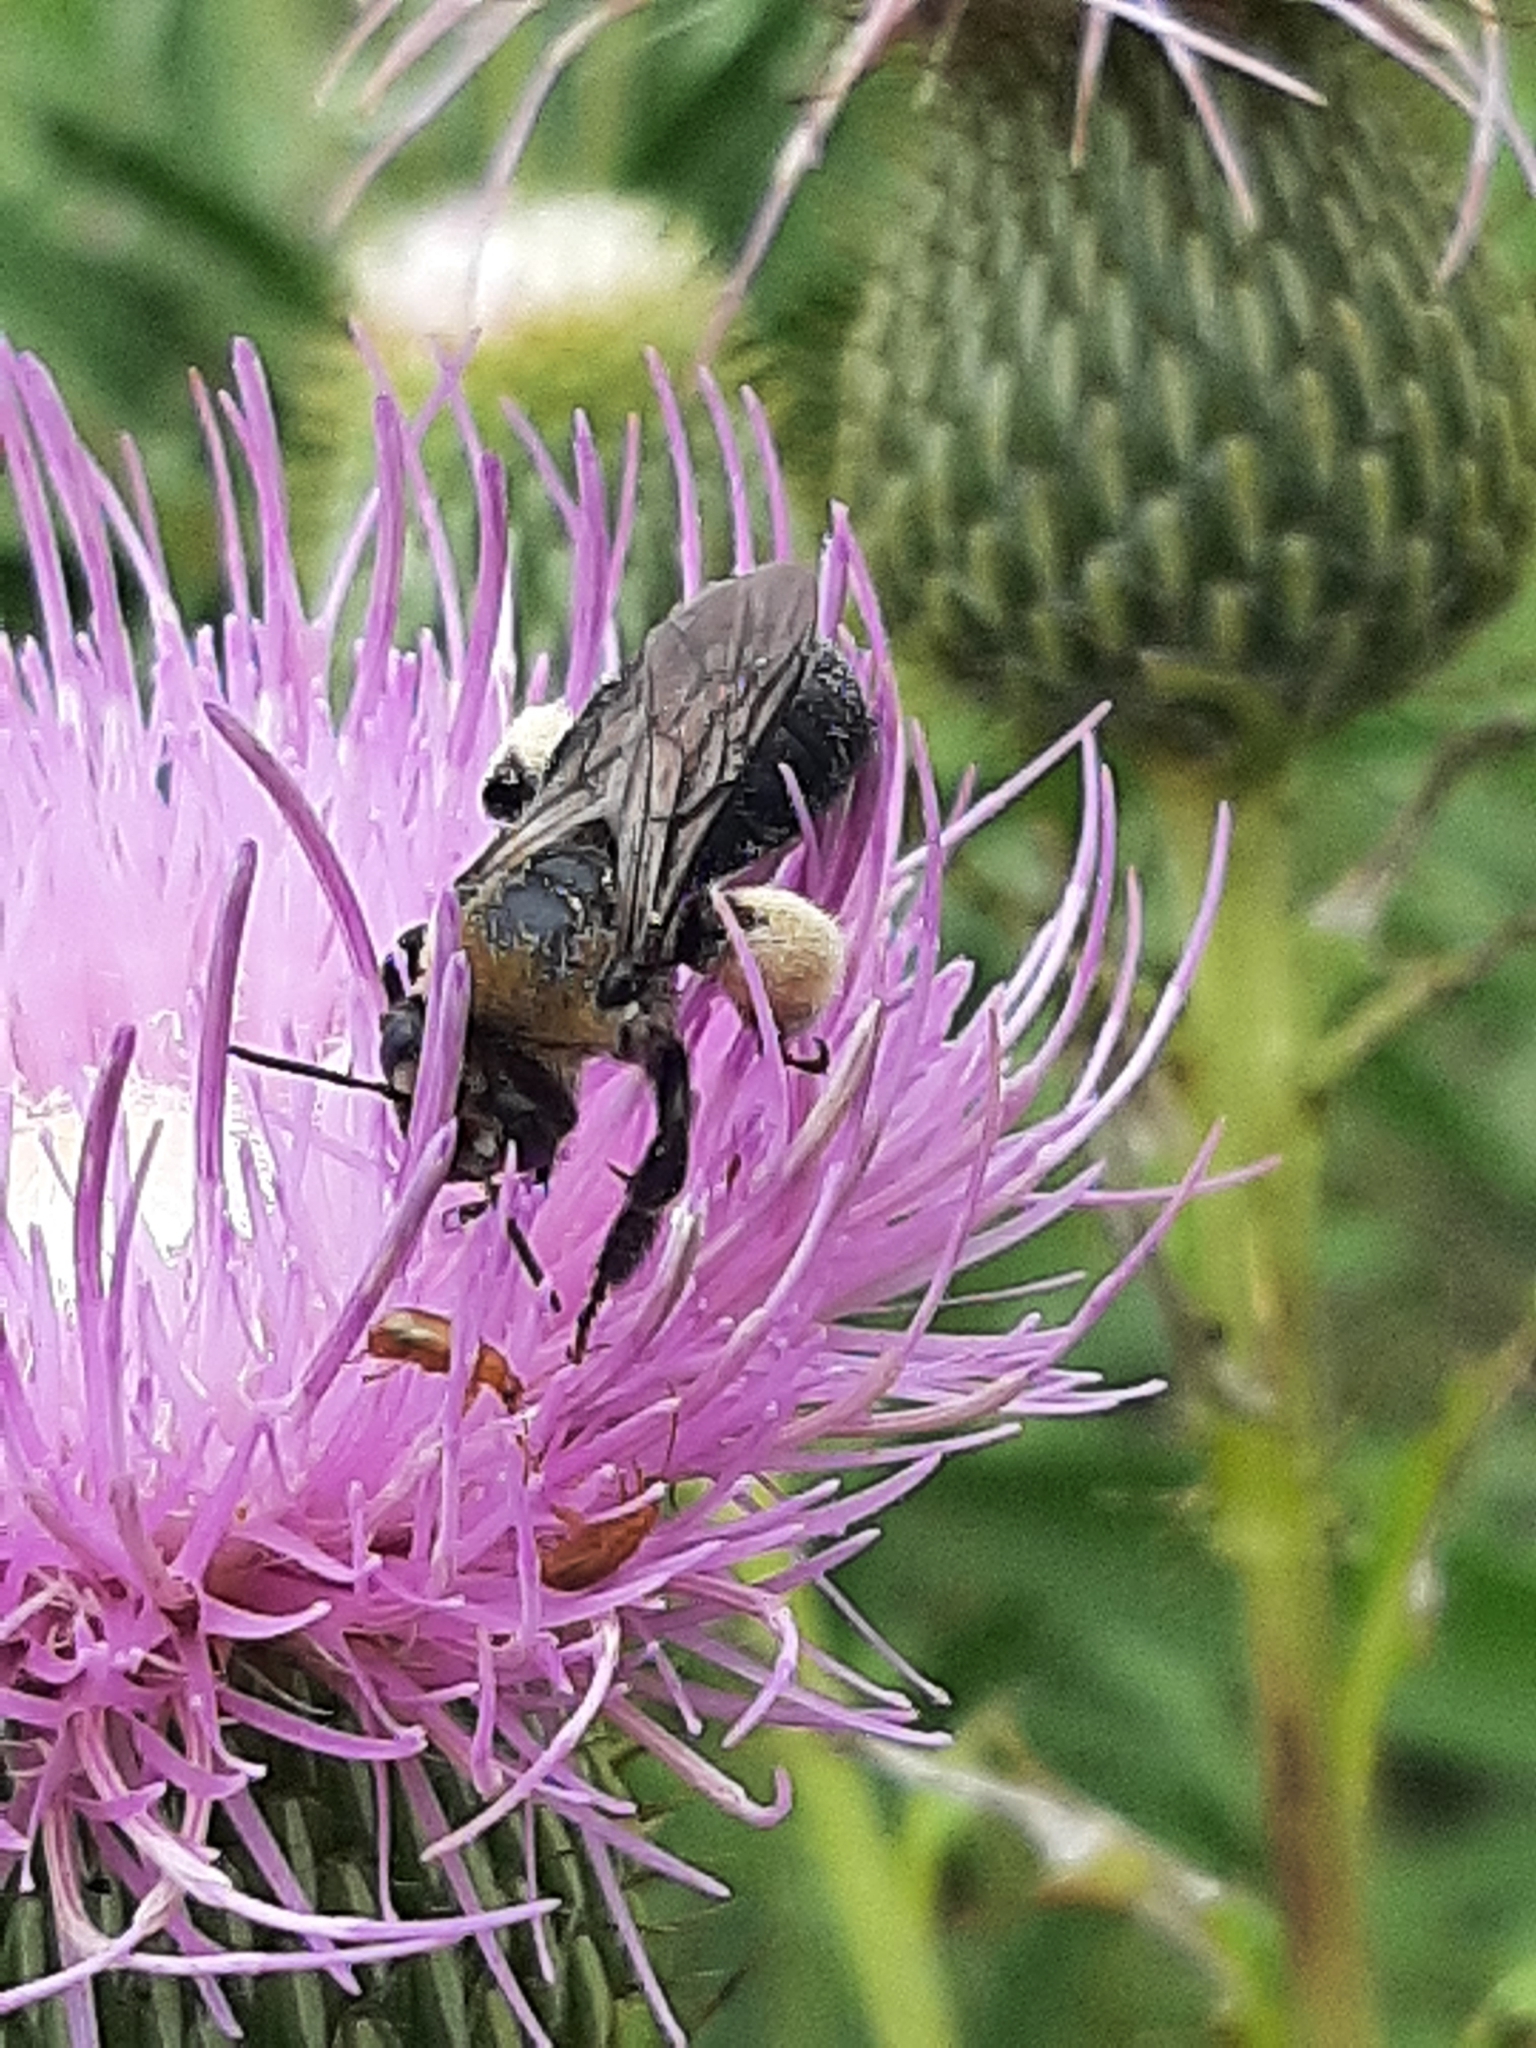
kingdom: Animalia
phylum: Arthropoda
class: Insecta
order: Hymenoptera
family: Apidae
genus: Melissodes
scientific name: Melissodes desponsus
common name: Thistle long-horned bee
